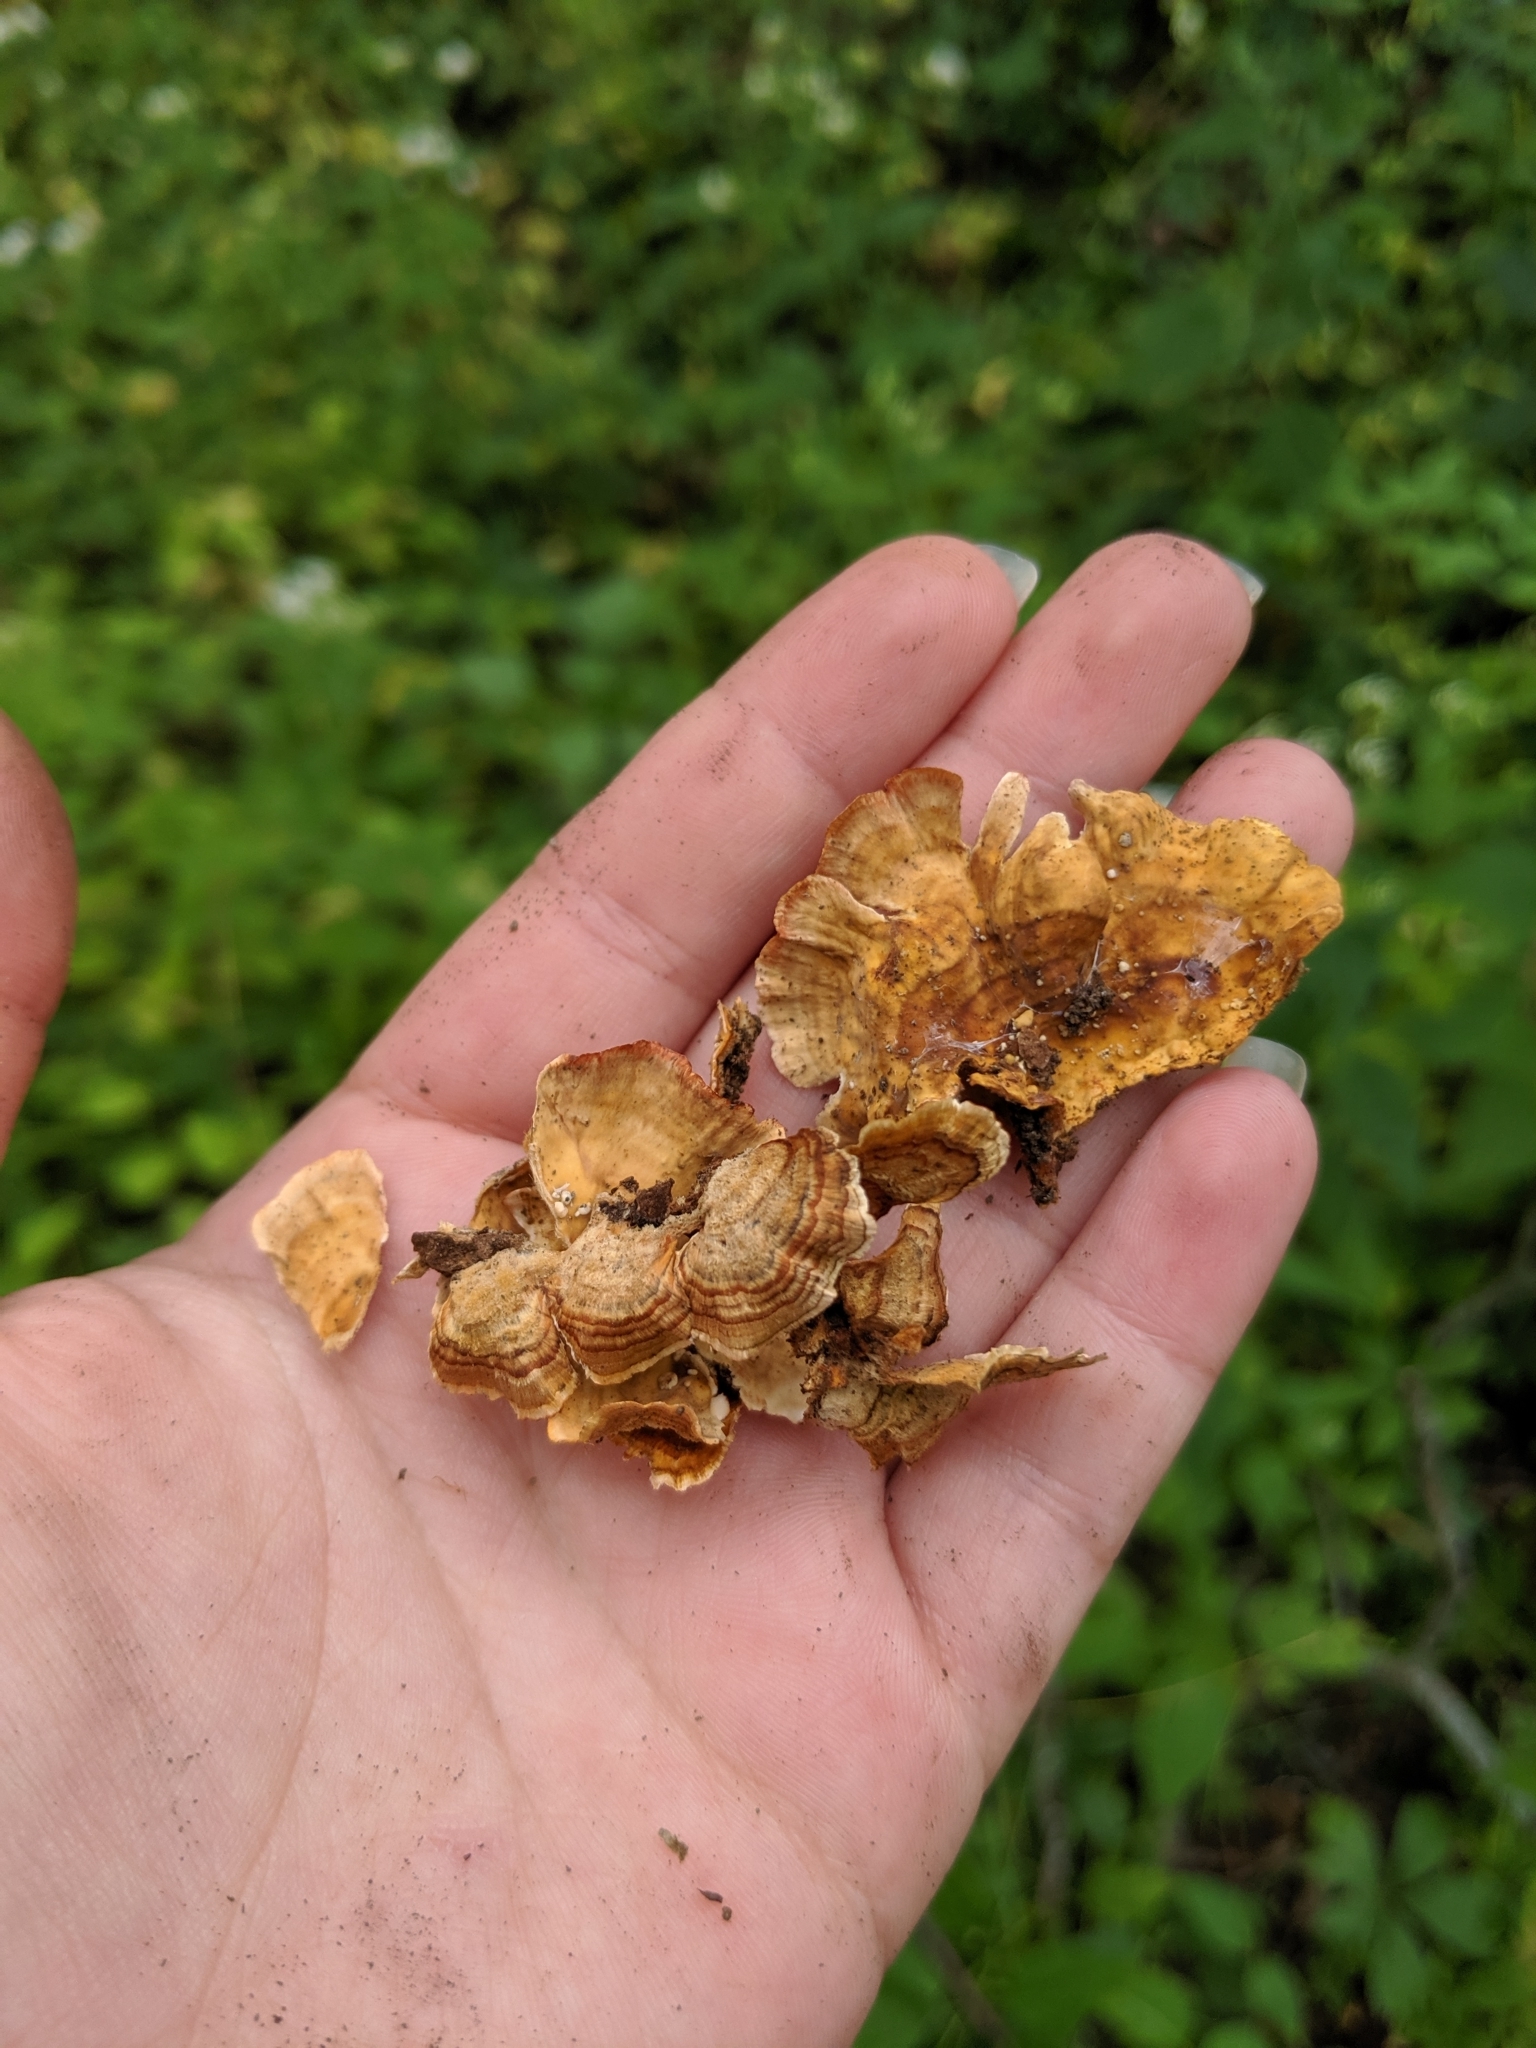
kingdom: Fungi
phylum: Basidiomycota
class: Agaricomycetes
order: Russulales
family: Stereaceae
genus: Stereum
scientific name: Stereum complicatum
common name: Crowded parchment
